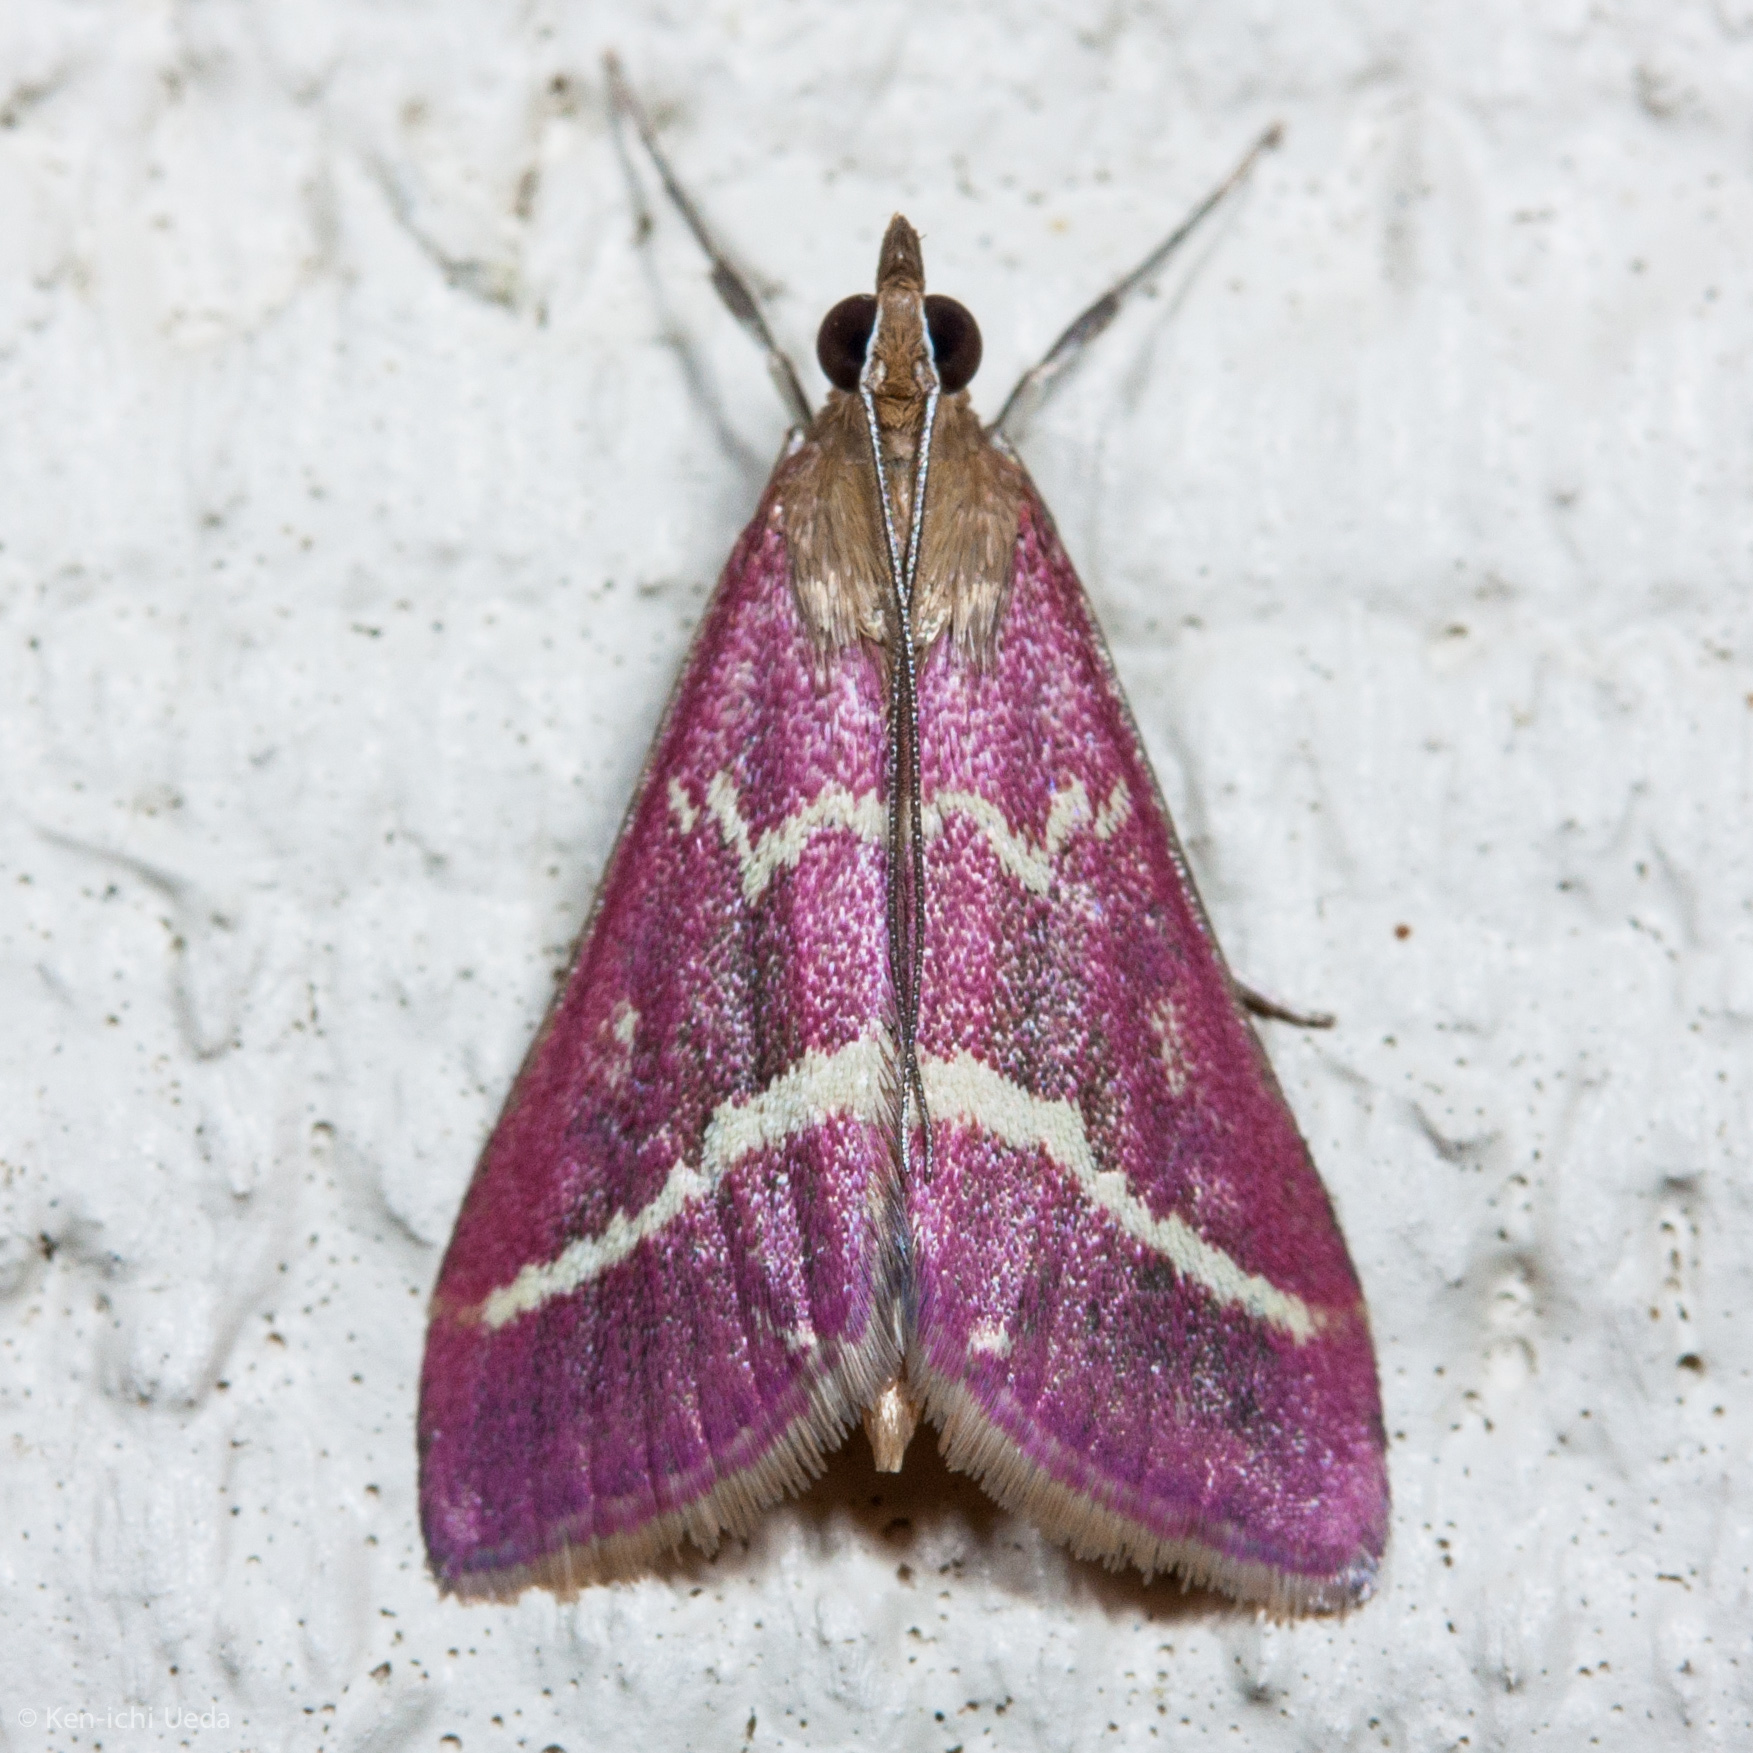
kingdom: Animalia
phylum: Arthropoda
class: Insecta
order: Lepidoptera
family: Crambidae
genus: Pyrausta
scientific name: Pyrausta volupialis
